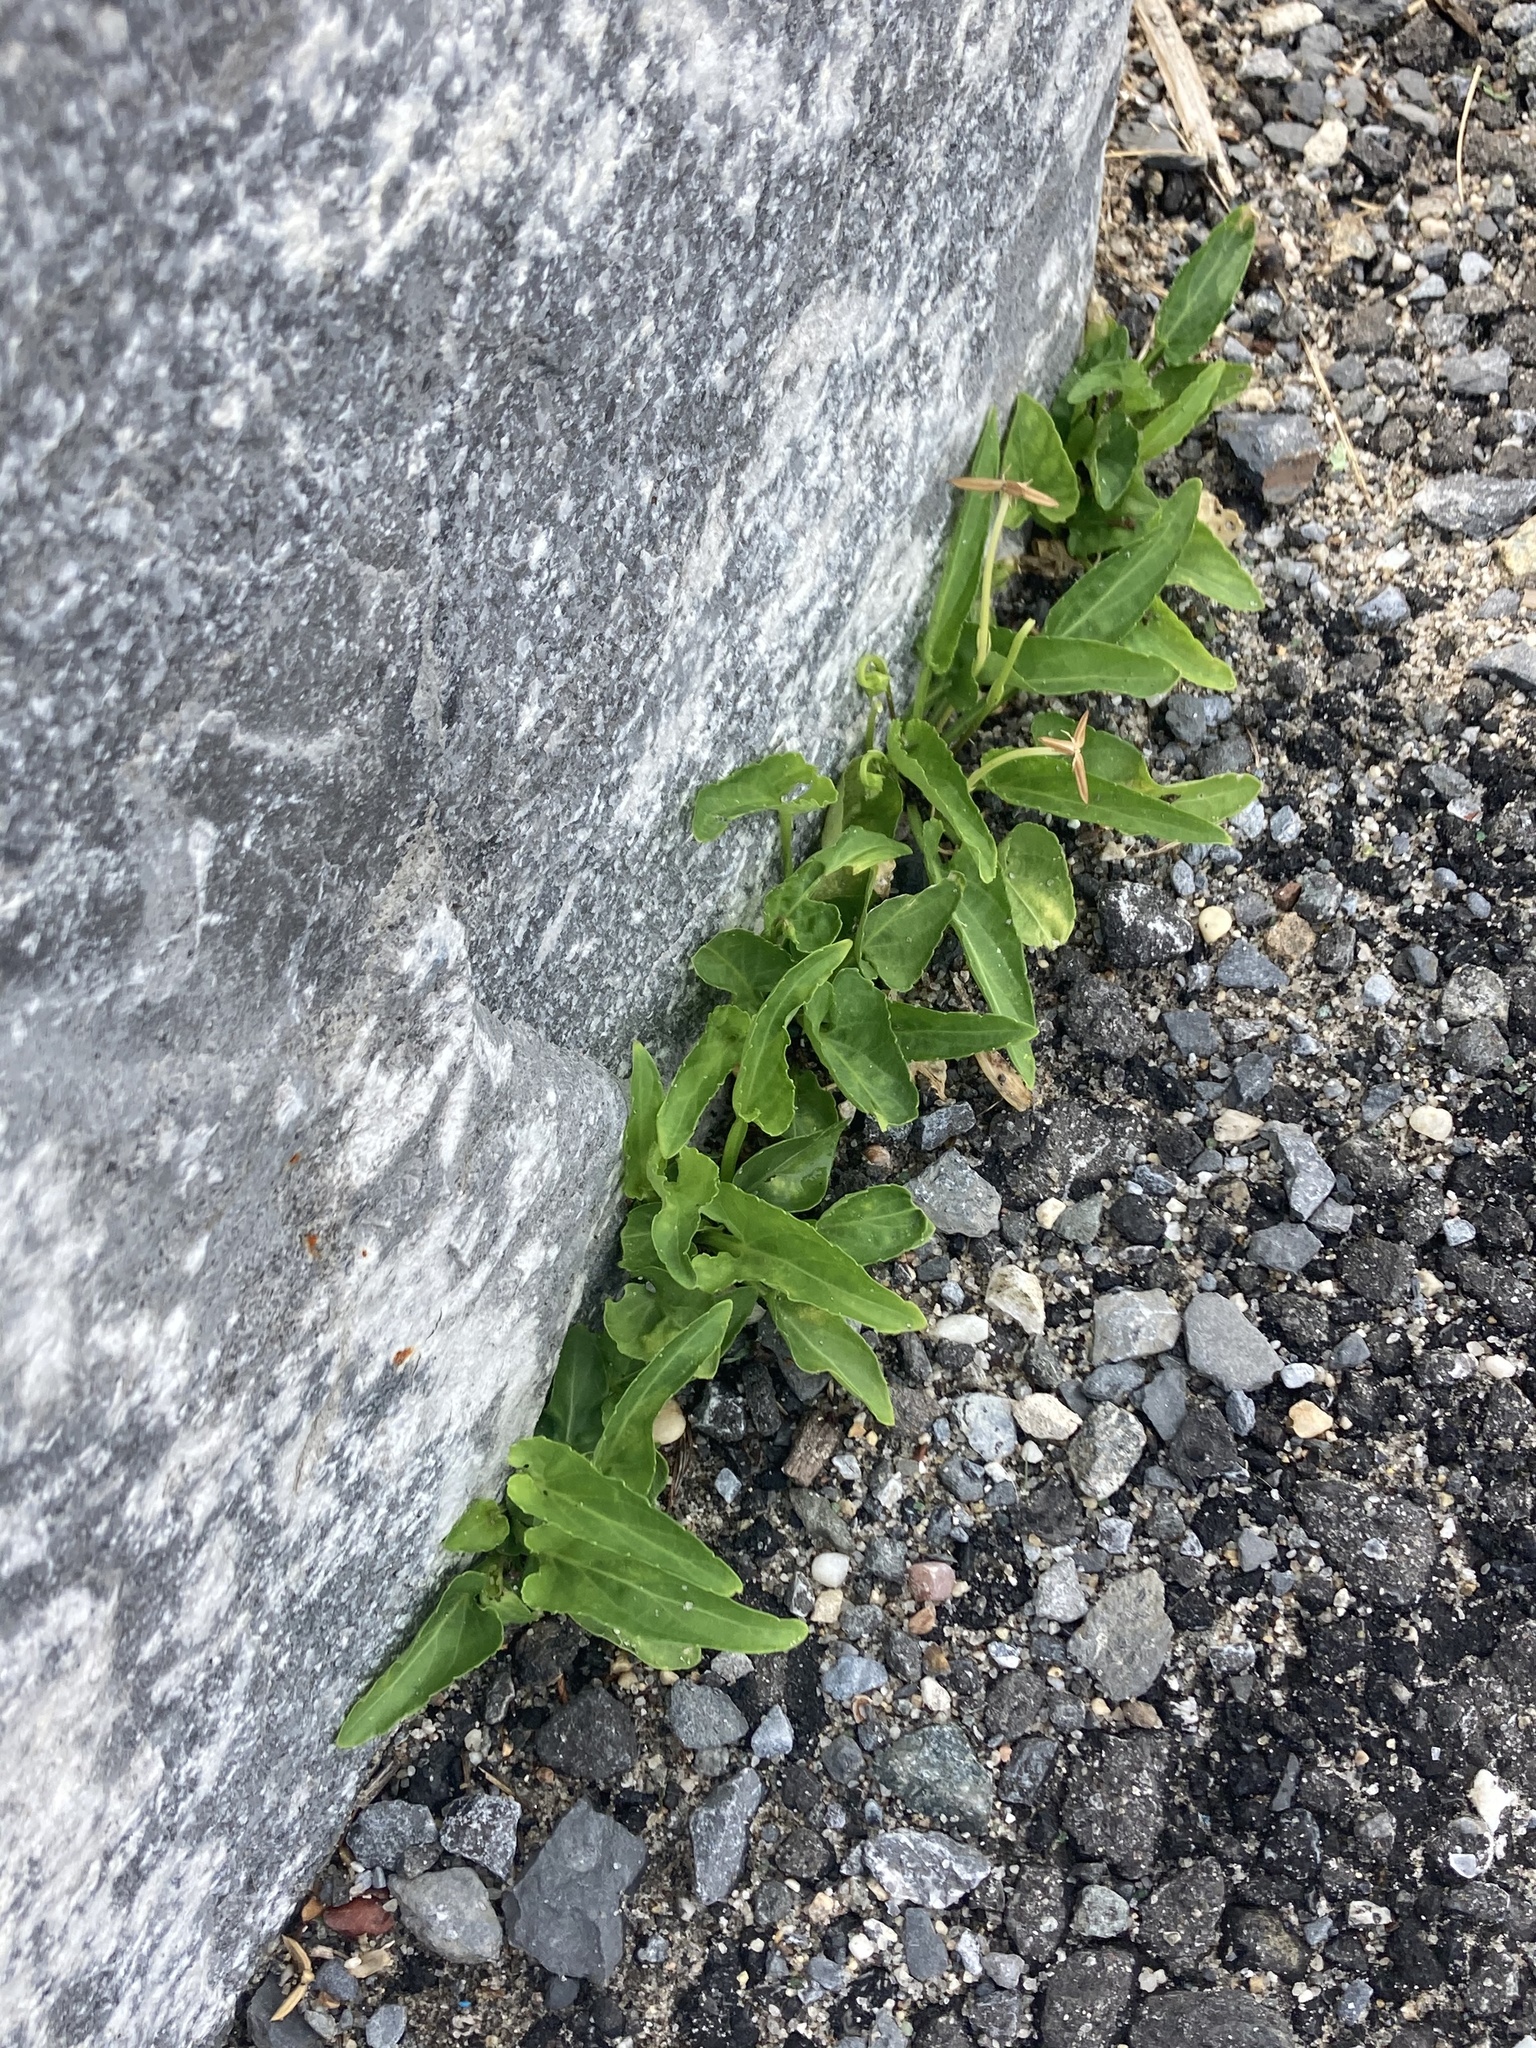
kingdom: Plantae
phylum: Tracheophyta
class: Magnoliopsida
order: Malpighiales
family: Violaceae
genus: Viola
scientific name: Viola patrinii
